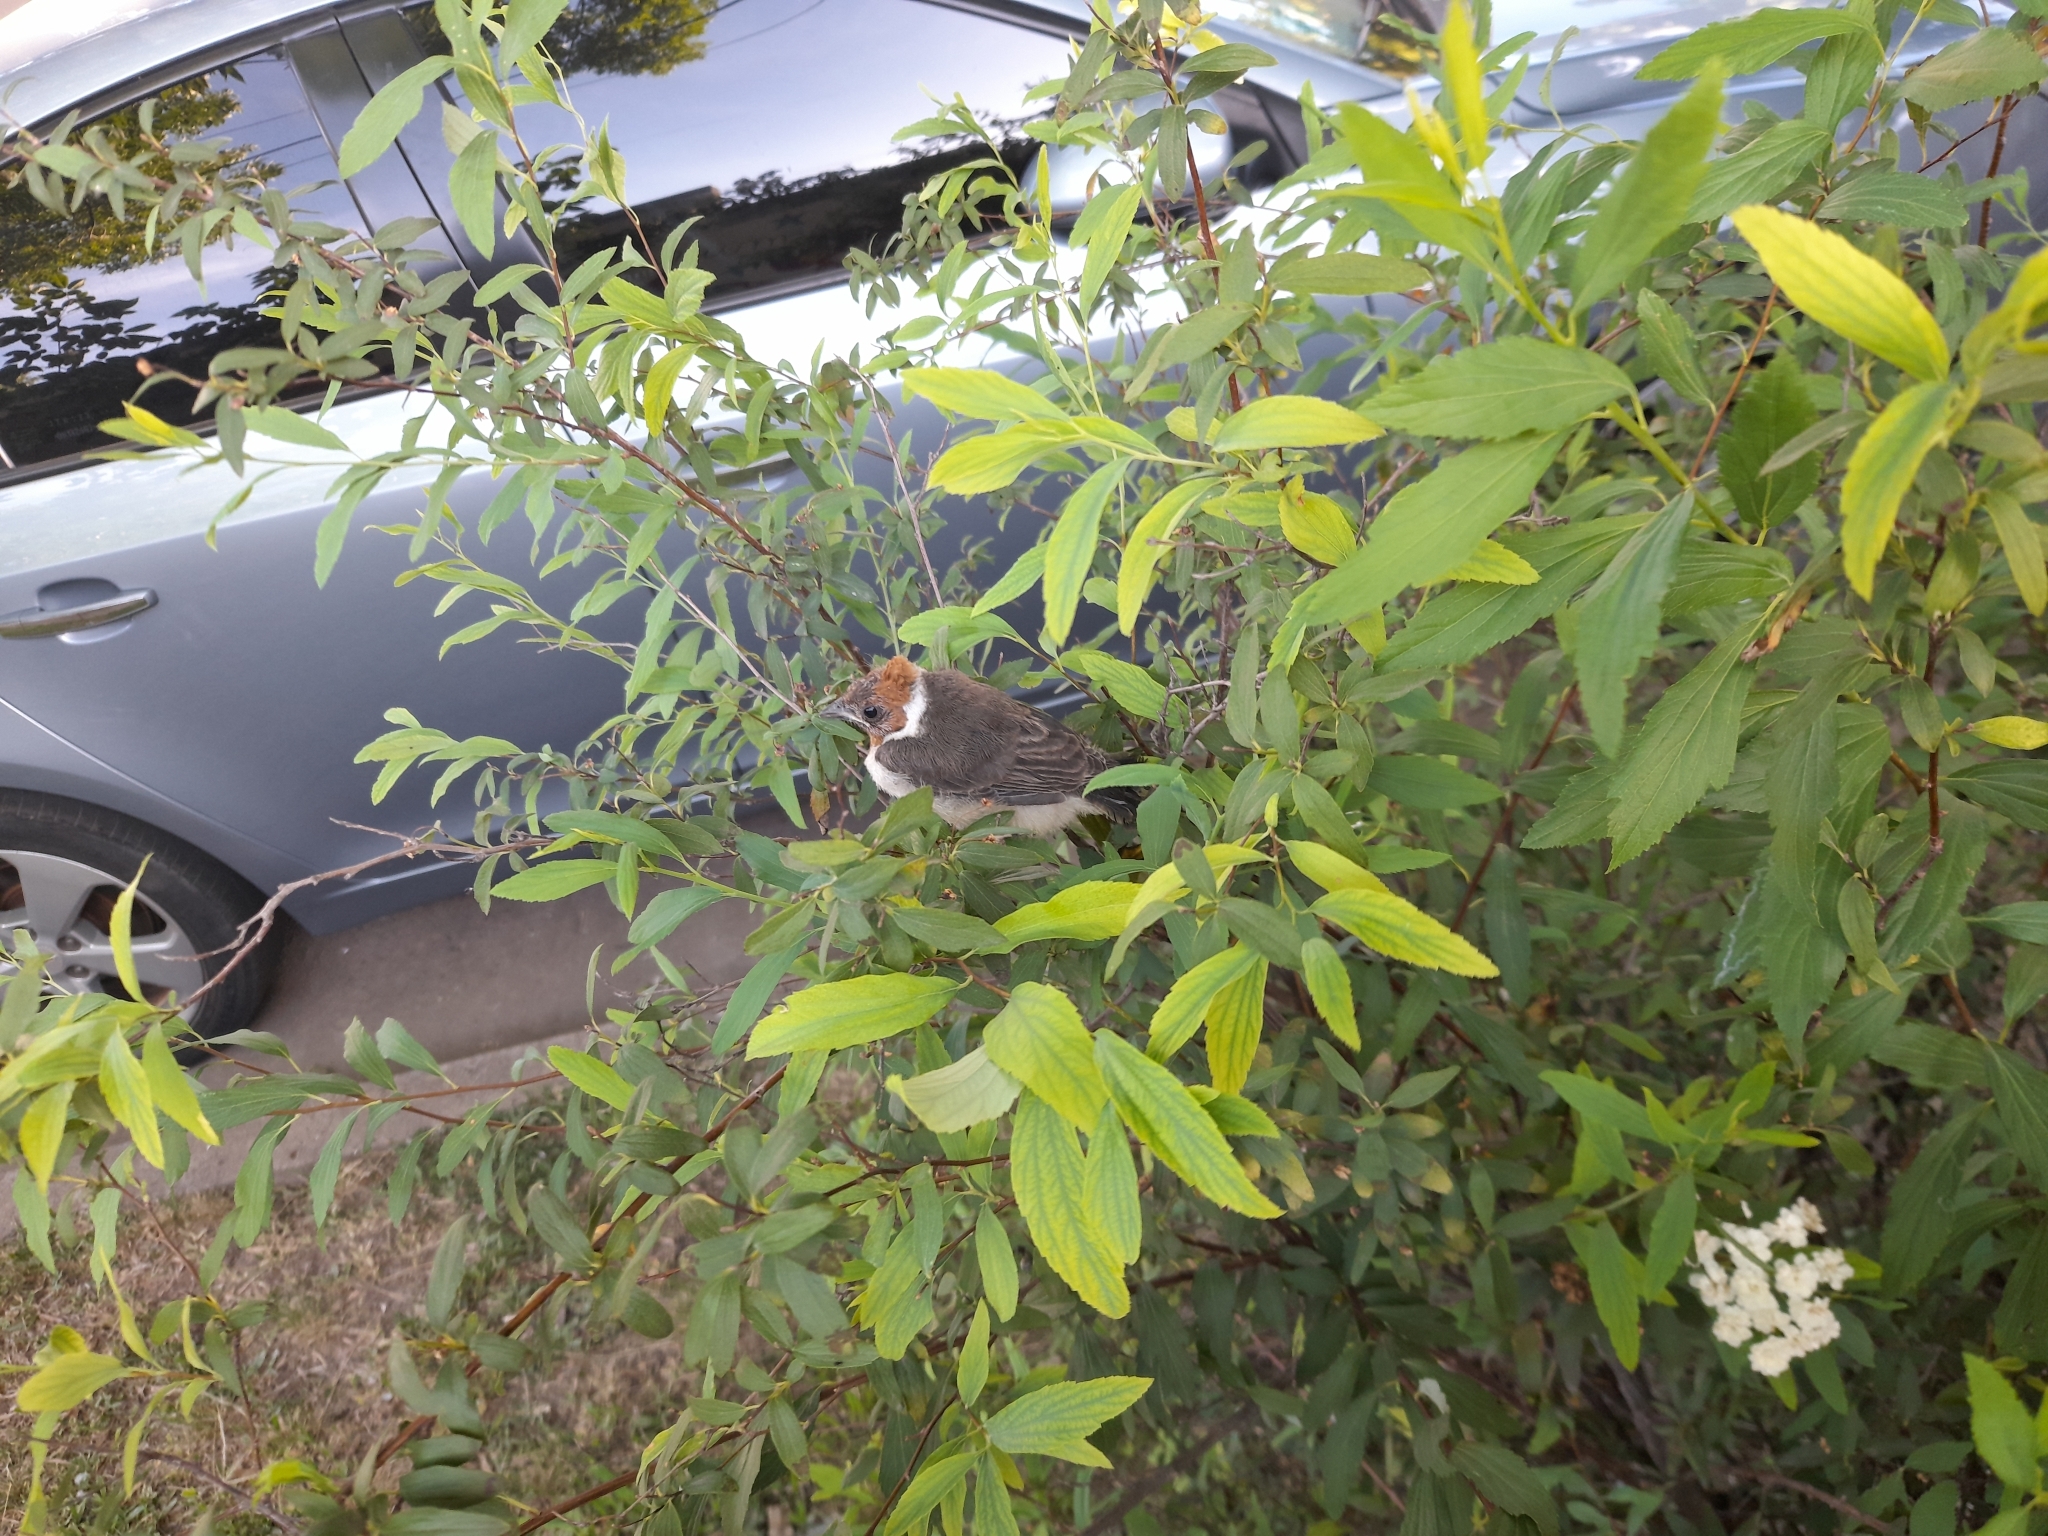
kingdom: Animalia
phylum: Chordata
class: Aves
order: Passeriformes
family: Thraupidae
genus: Paroaria
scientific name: Paroaria coronata
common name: Red-crested cardinal
